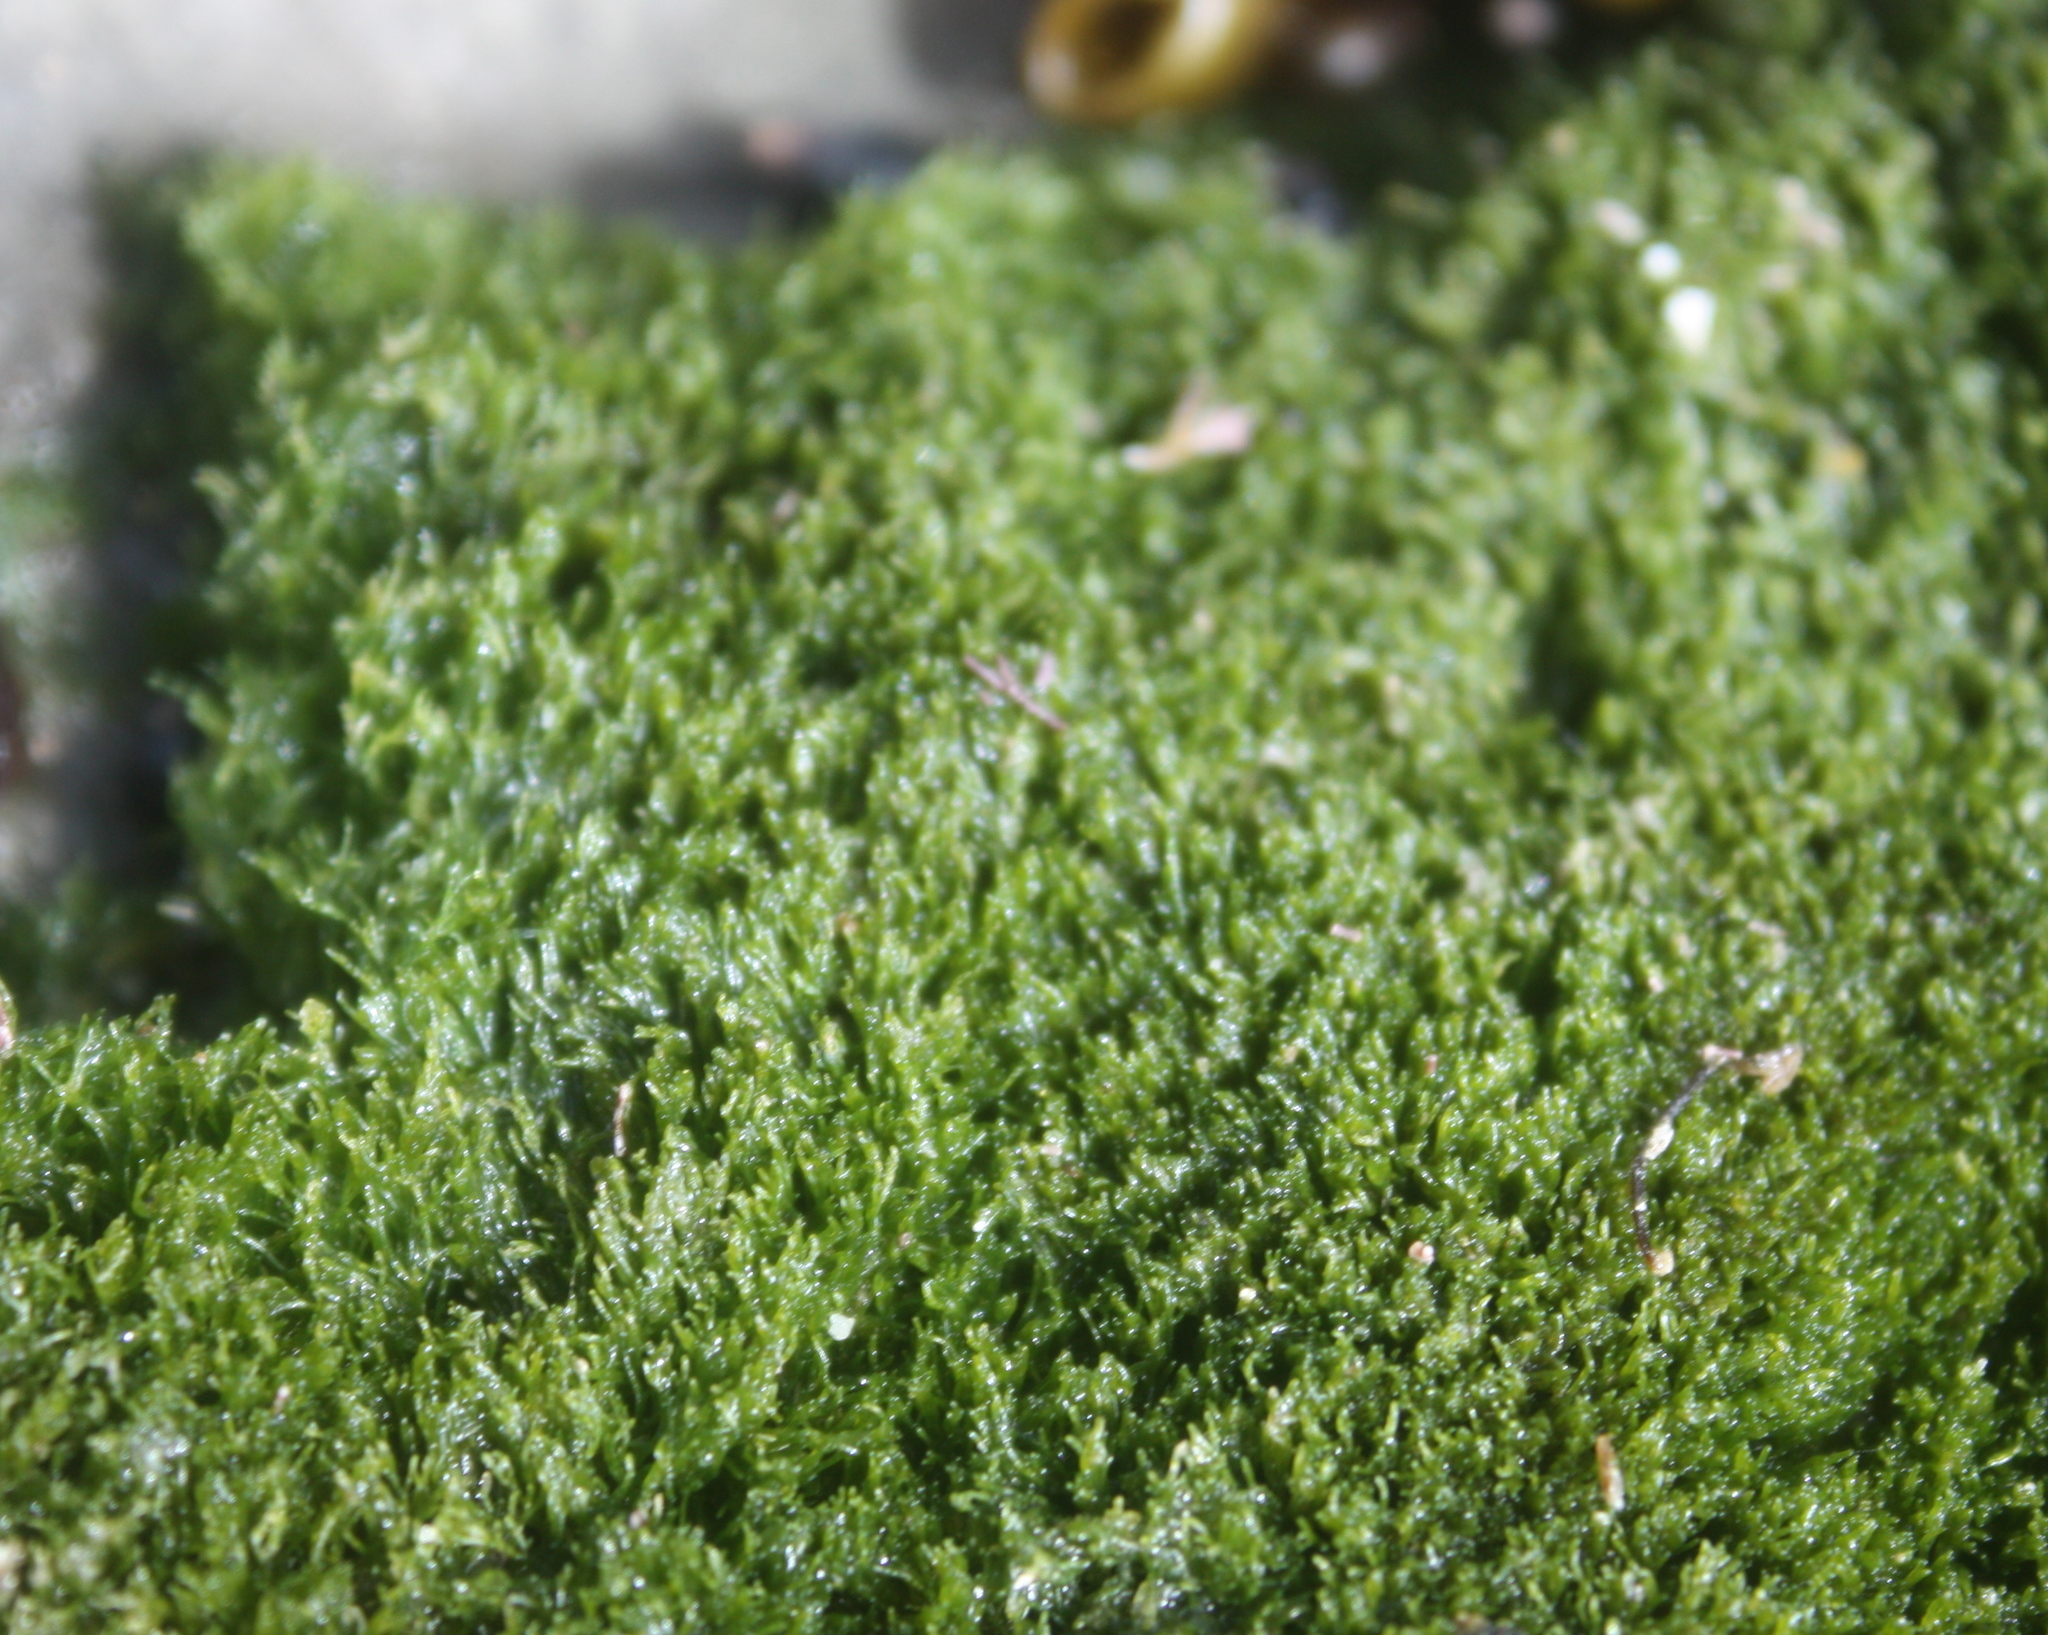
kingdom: Plantae
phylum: Chlorophyta
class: Ulvophyceae
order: Cladophorales
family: Cladophoraceae
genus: Cladophora
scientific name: Cladophora columbiana
